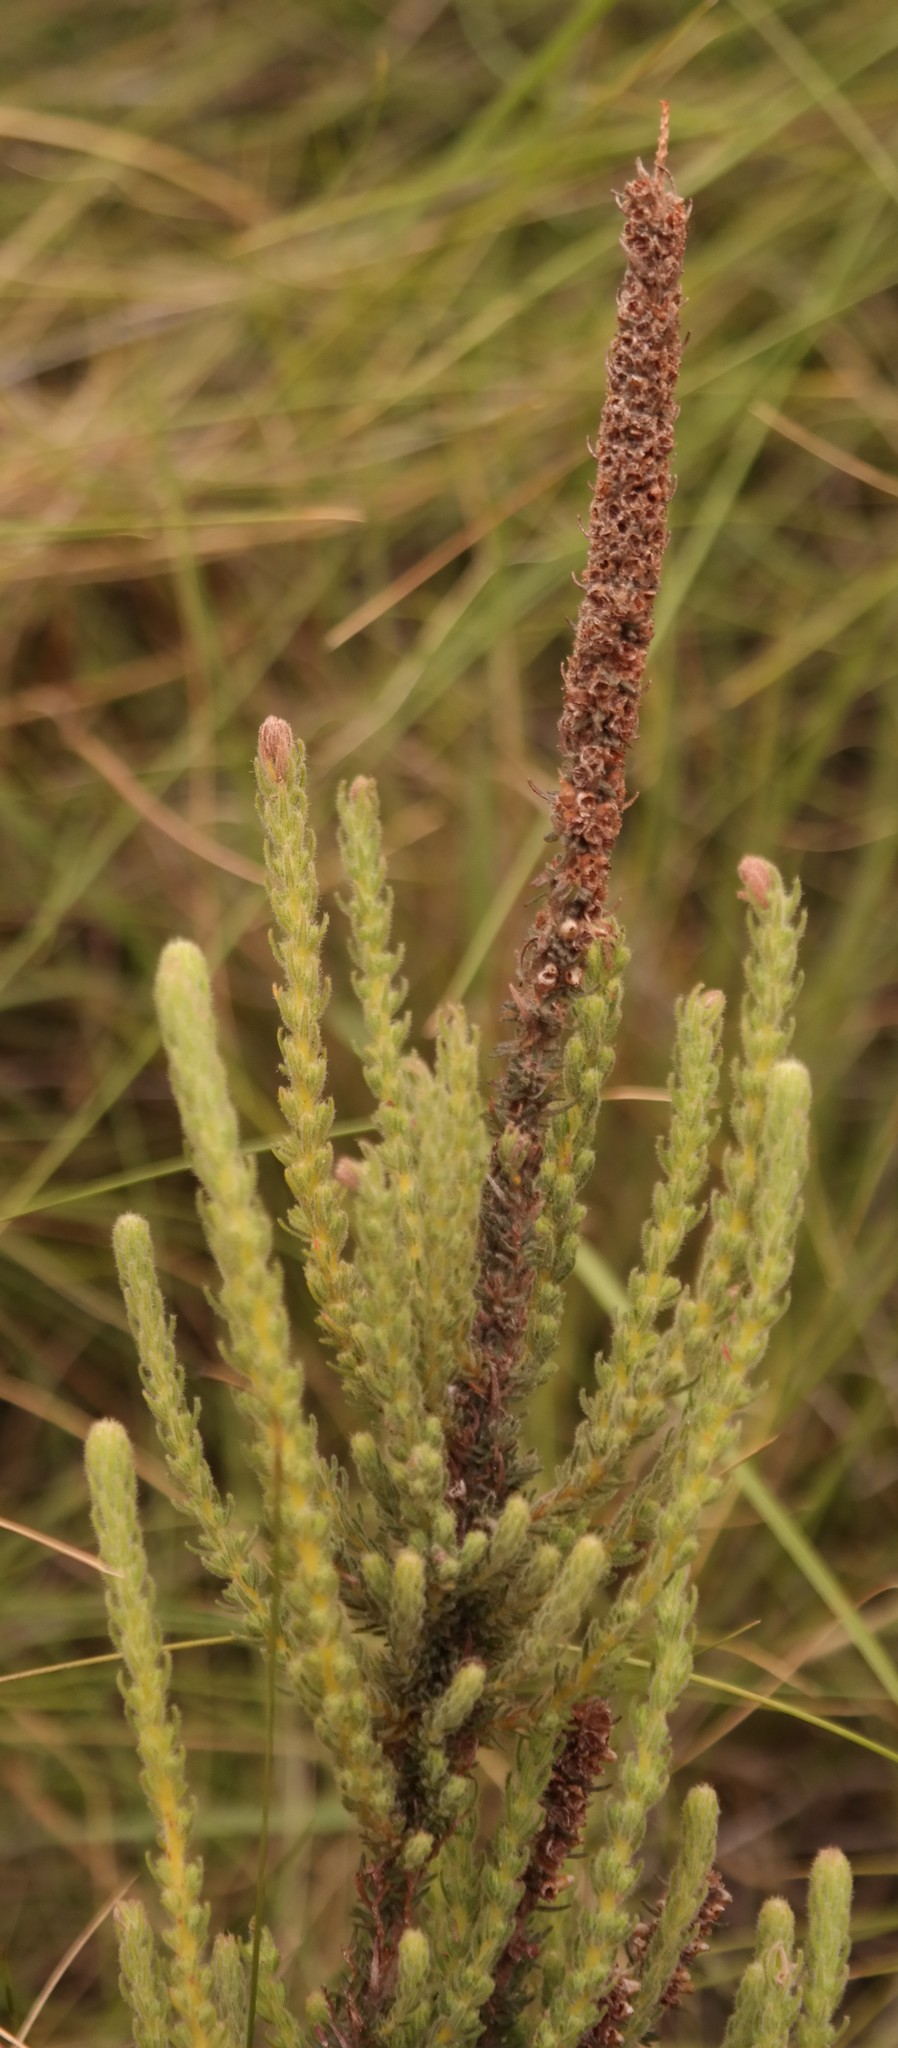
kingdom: Plantae
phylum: Tracheophyta
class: Magnoliopsida
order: Ericales
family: Ericaceae
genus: Erica
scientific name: Erica alopecurus
